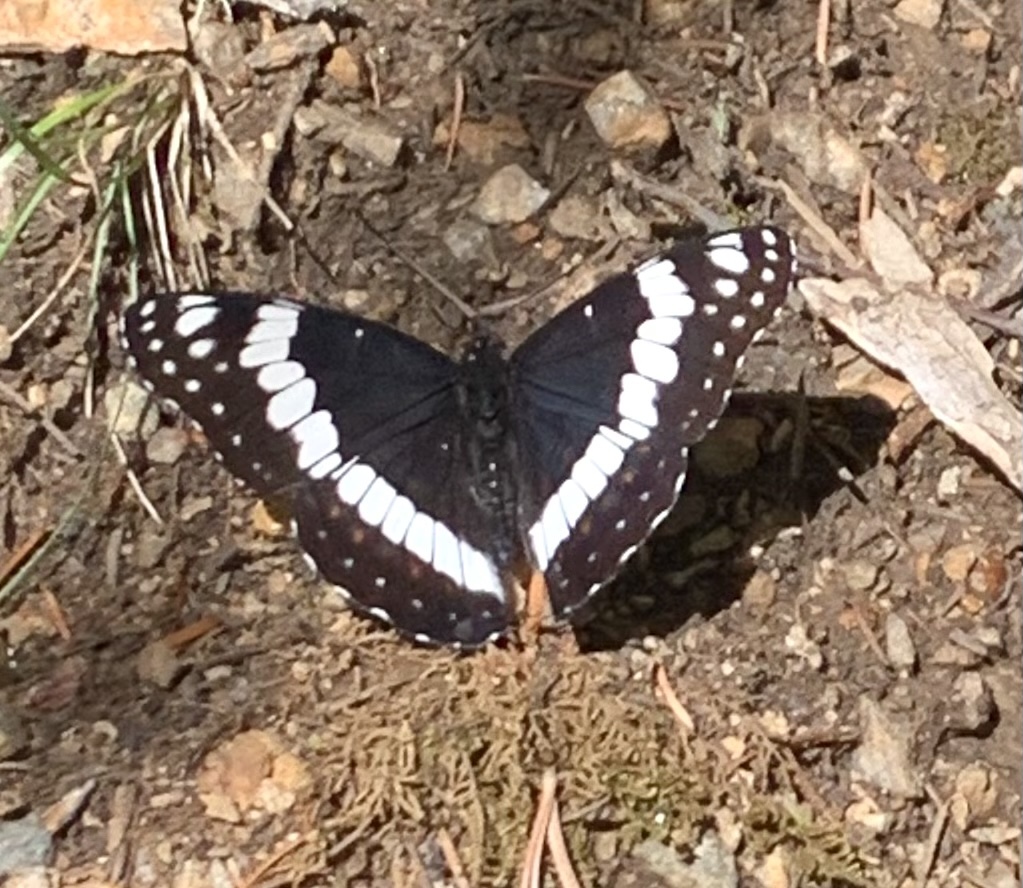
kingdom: Animalia
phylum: Arthropoda
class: Insecta
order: Lepidoptera
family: Nymphalidae
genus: Limenitis
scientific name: Limenitis weidemeyerii
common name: Weidemeyer's admiral
